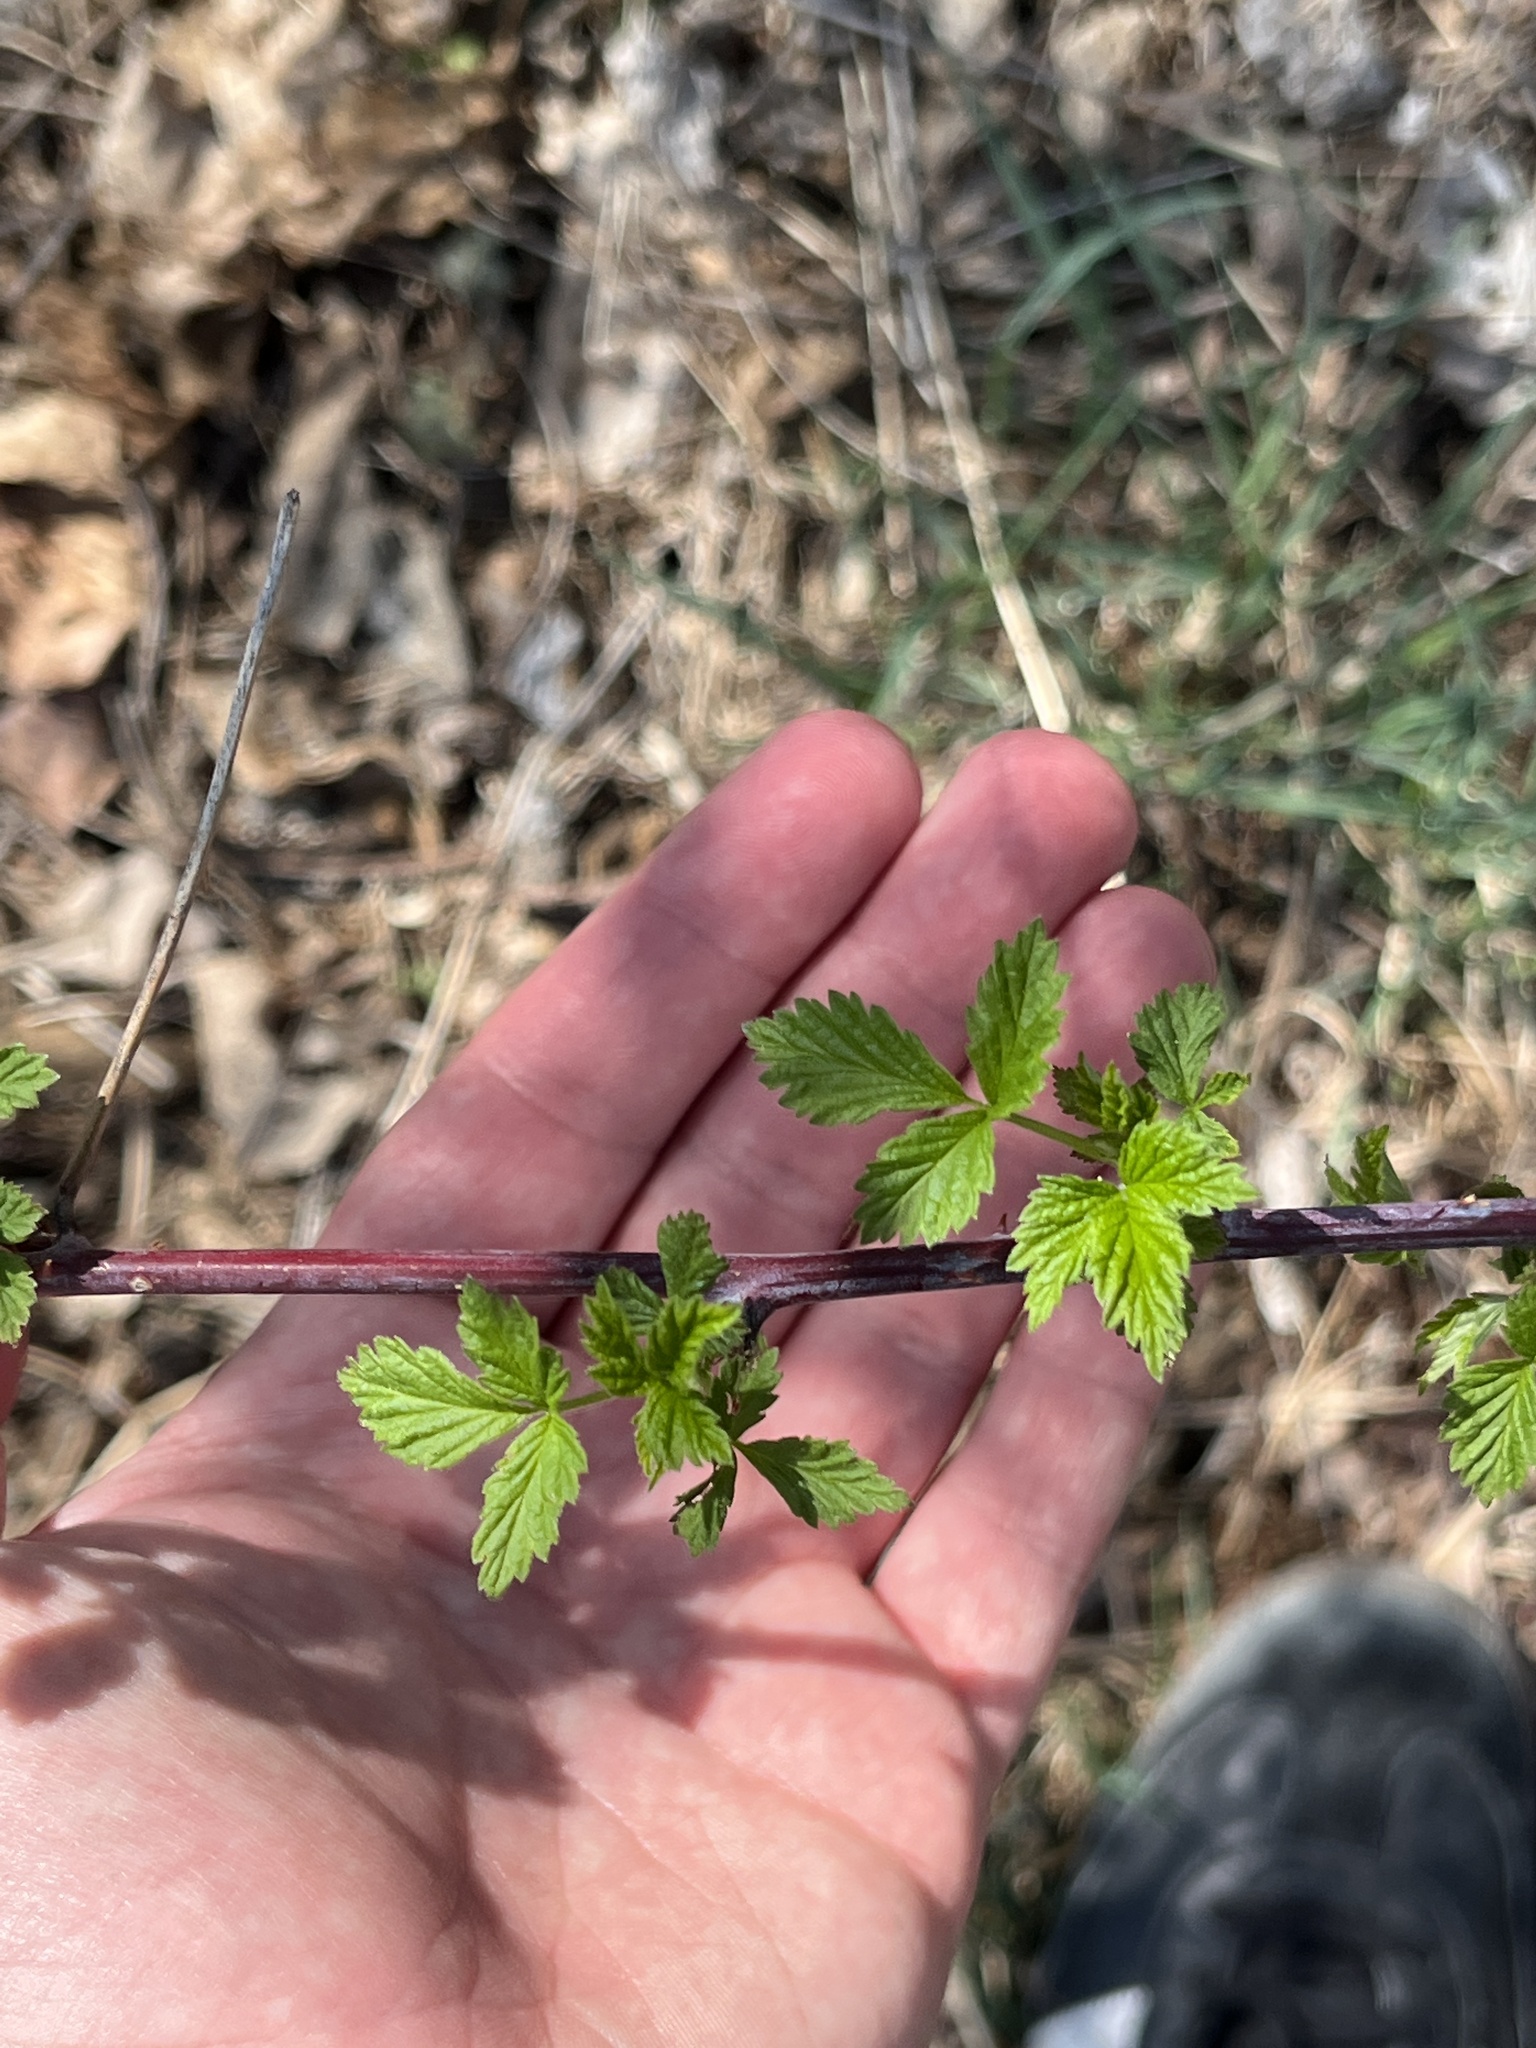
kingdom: Plantae
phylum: Tracheophyta
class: Magnoliopsida
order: Rosales
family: Rosaceae
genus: Rubus
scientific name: Rubus occidentalis
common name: Black raspberry
